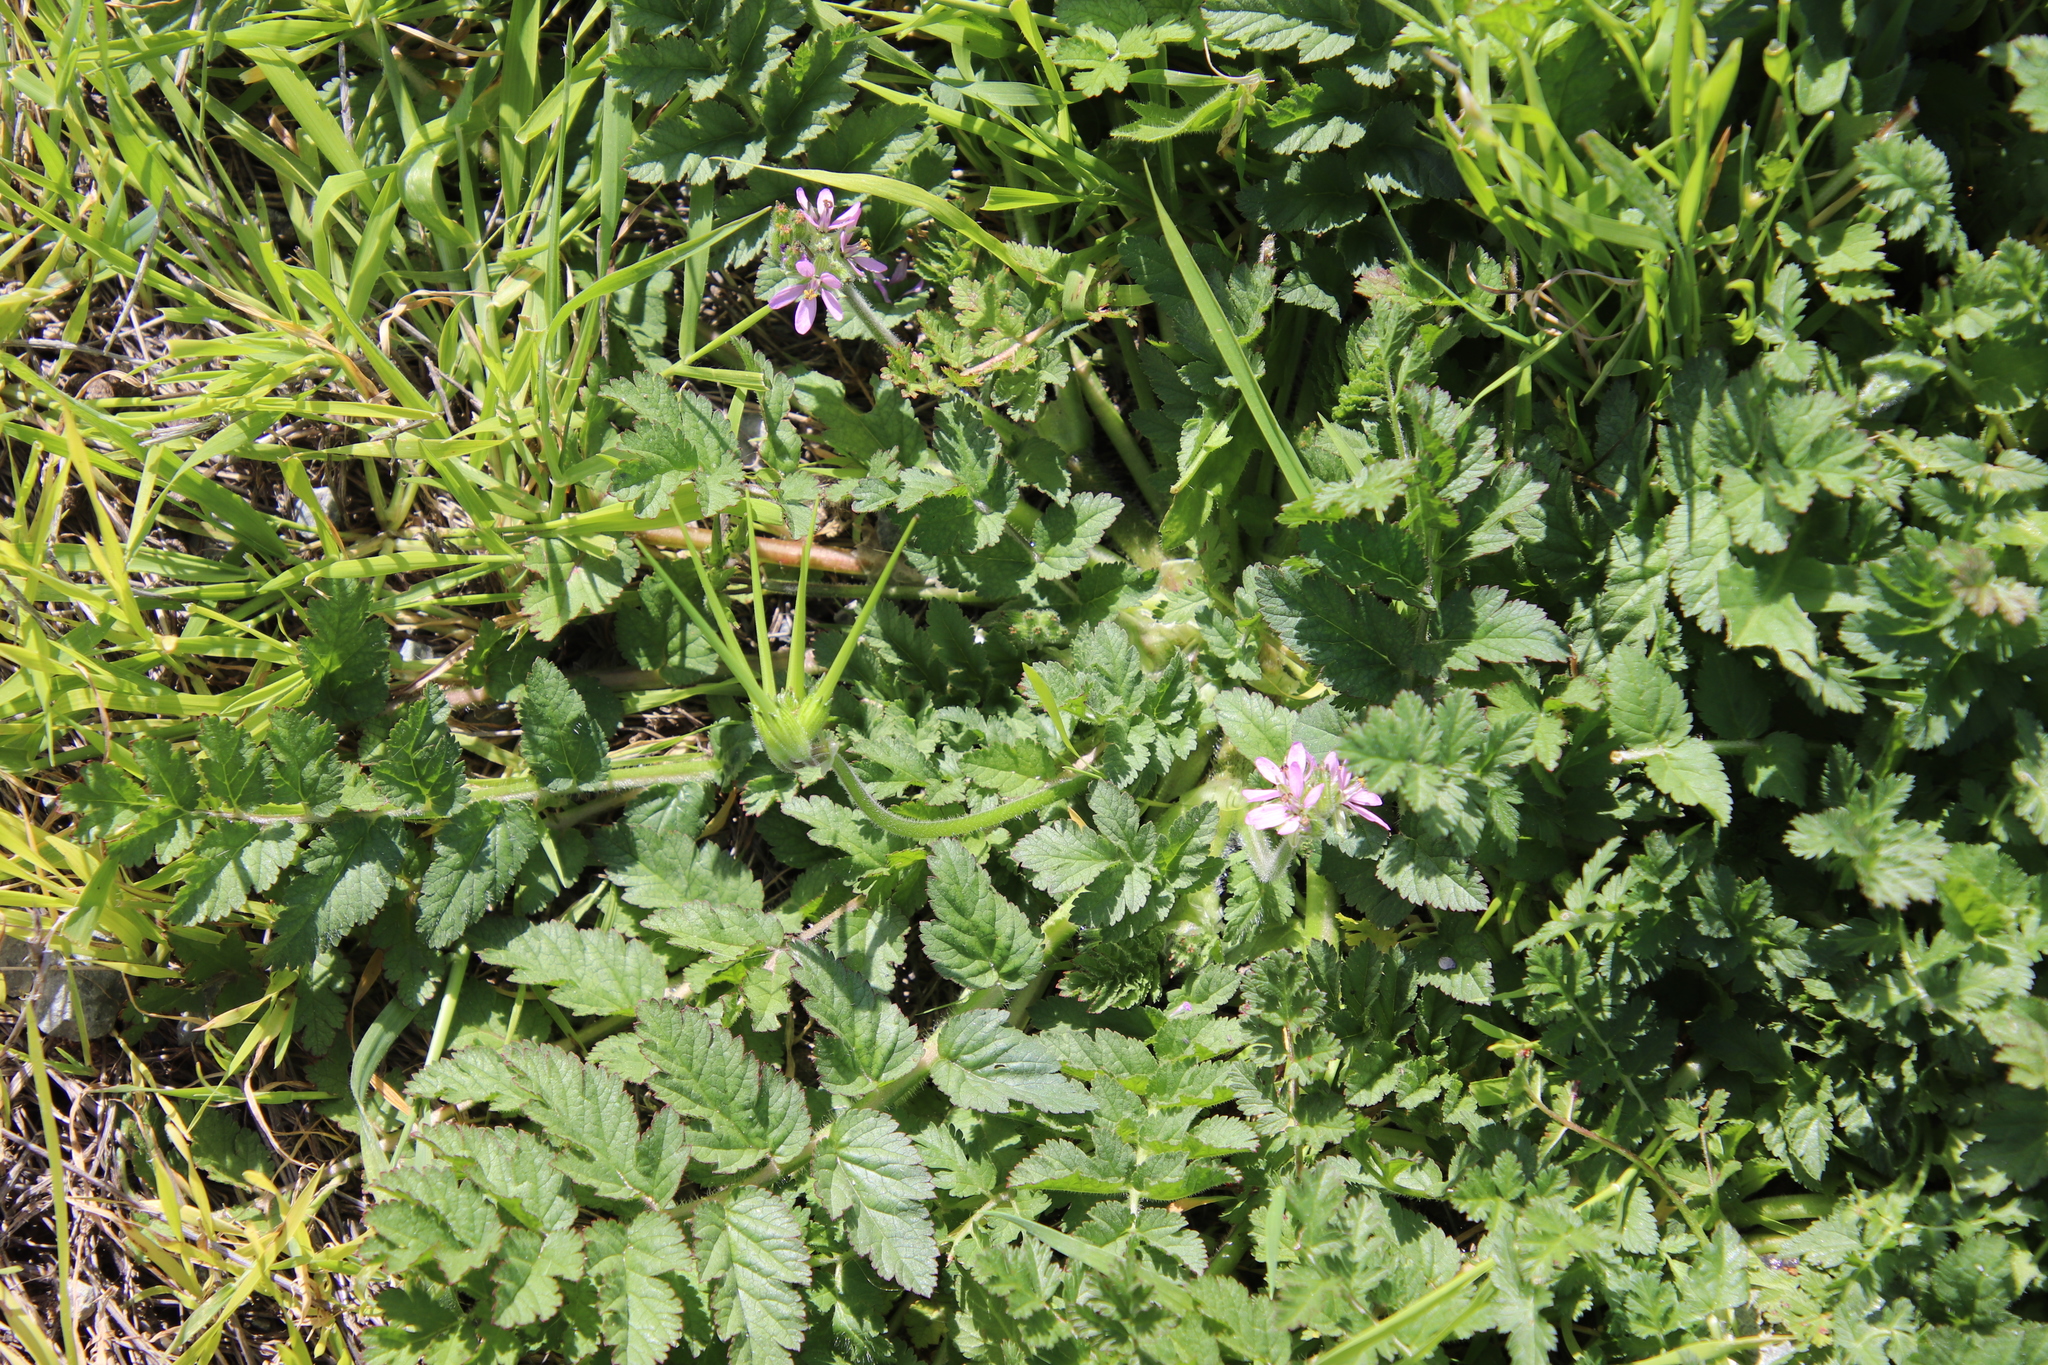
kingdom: Plantae
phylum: Tracheophyta
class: Magnoliopsida
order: Geraniales
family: Geraniaceae
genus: Erodium
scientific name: Erodium moschatum
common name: Musk stork's-bill
